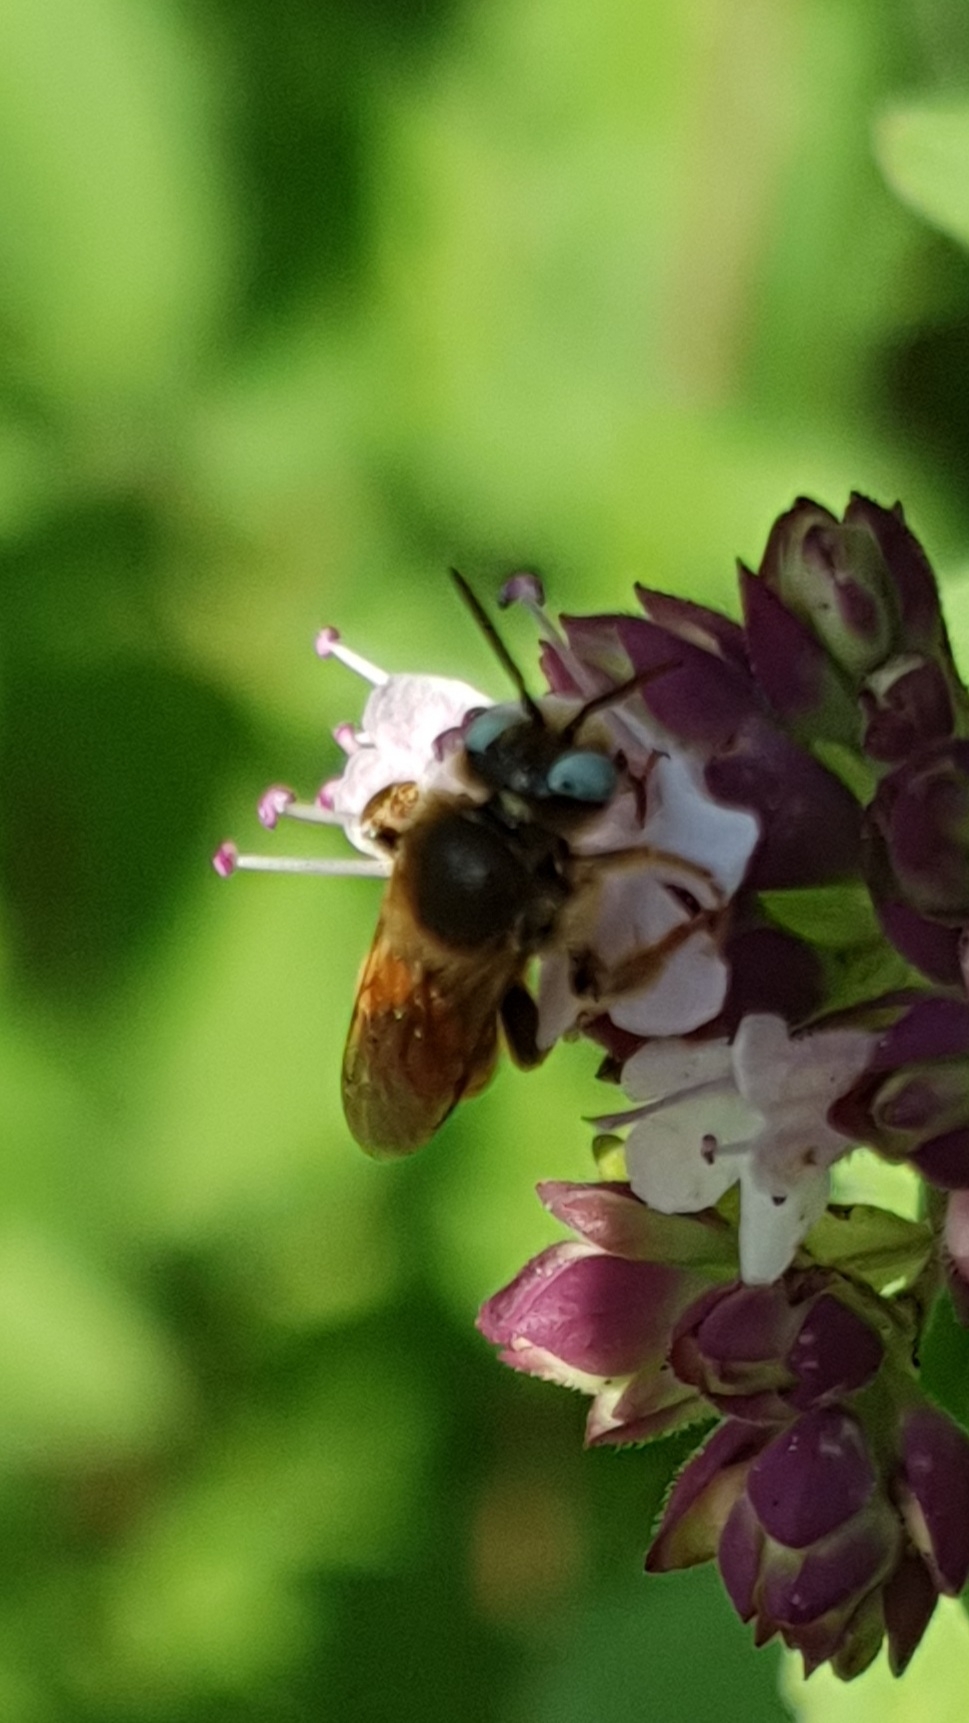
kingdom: Animalia
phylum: Arthropoda
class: Insecta
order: Hymenoptera
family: Apidae
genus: Epeoloides
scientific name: Epeoloides coecutiens
